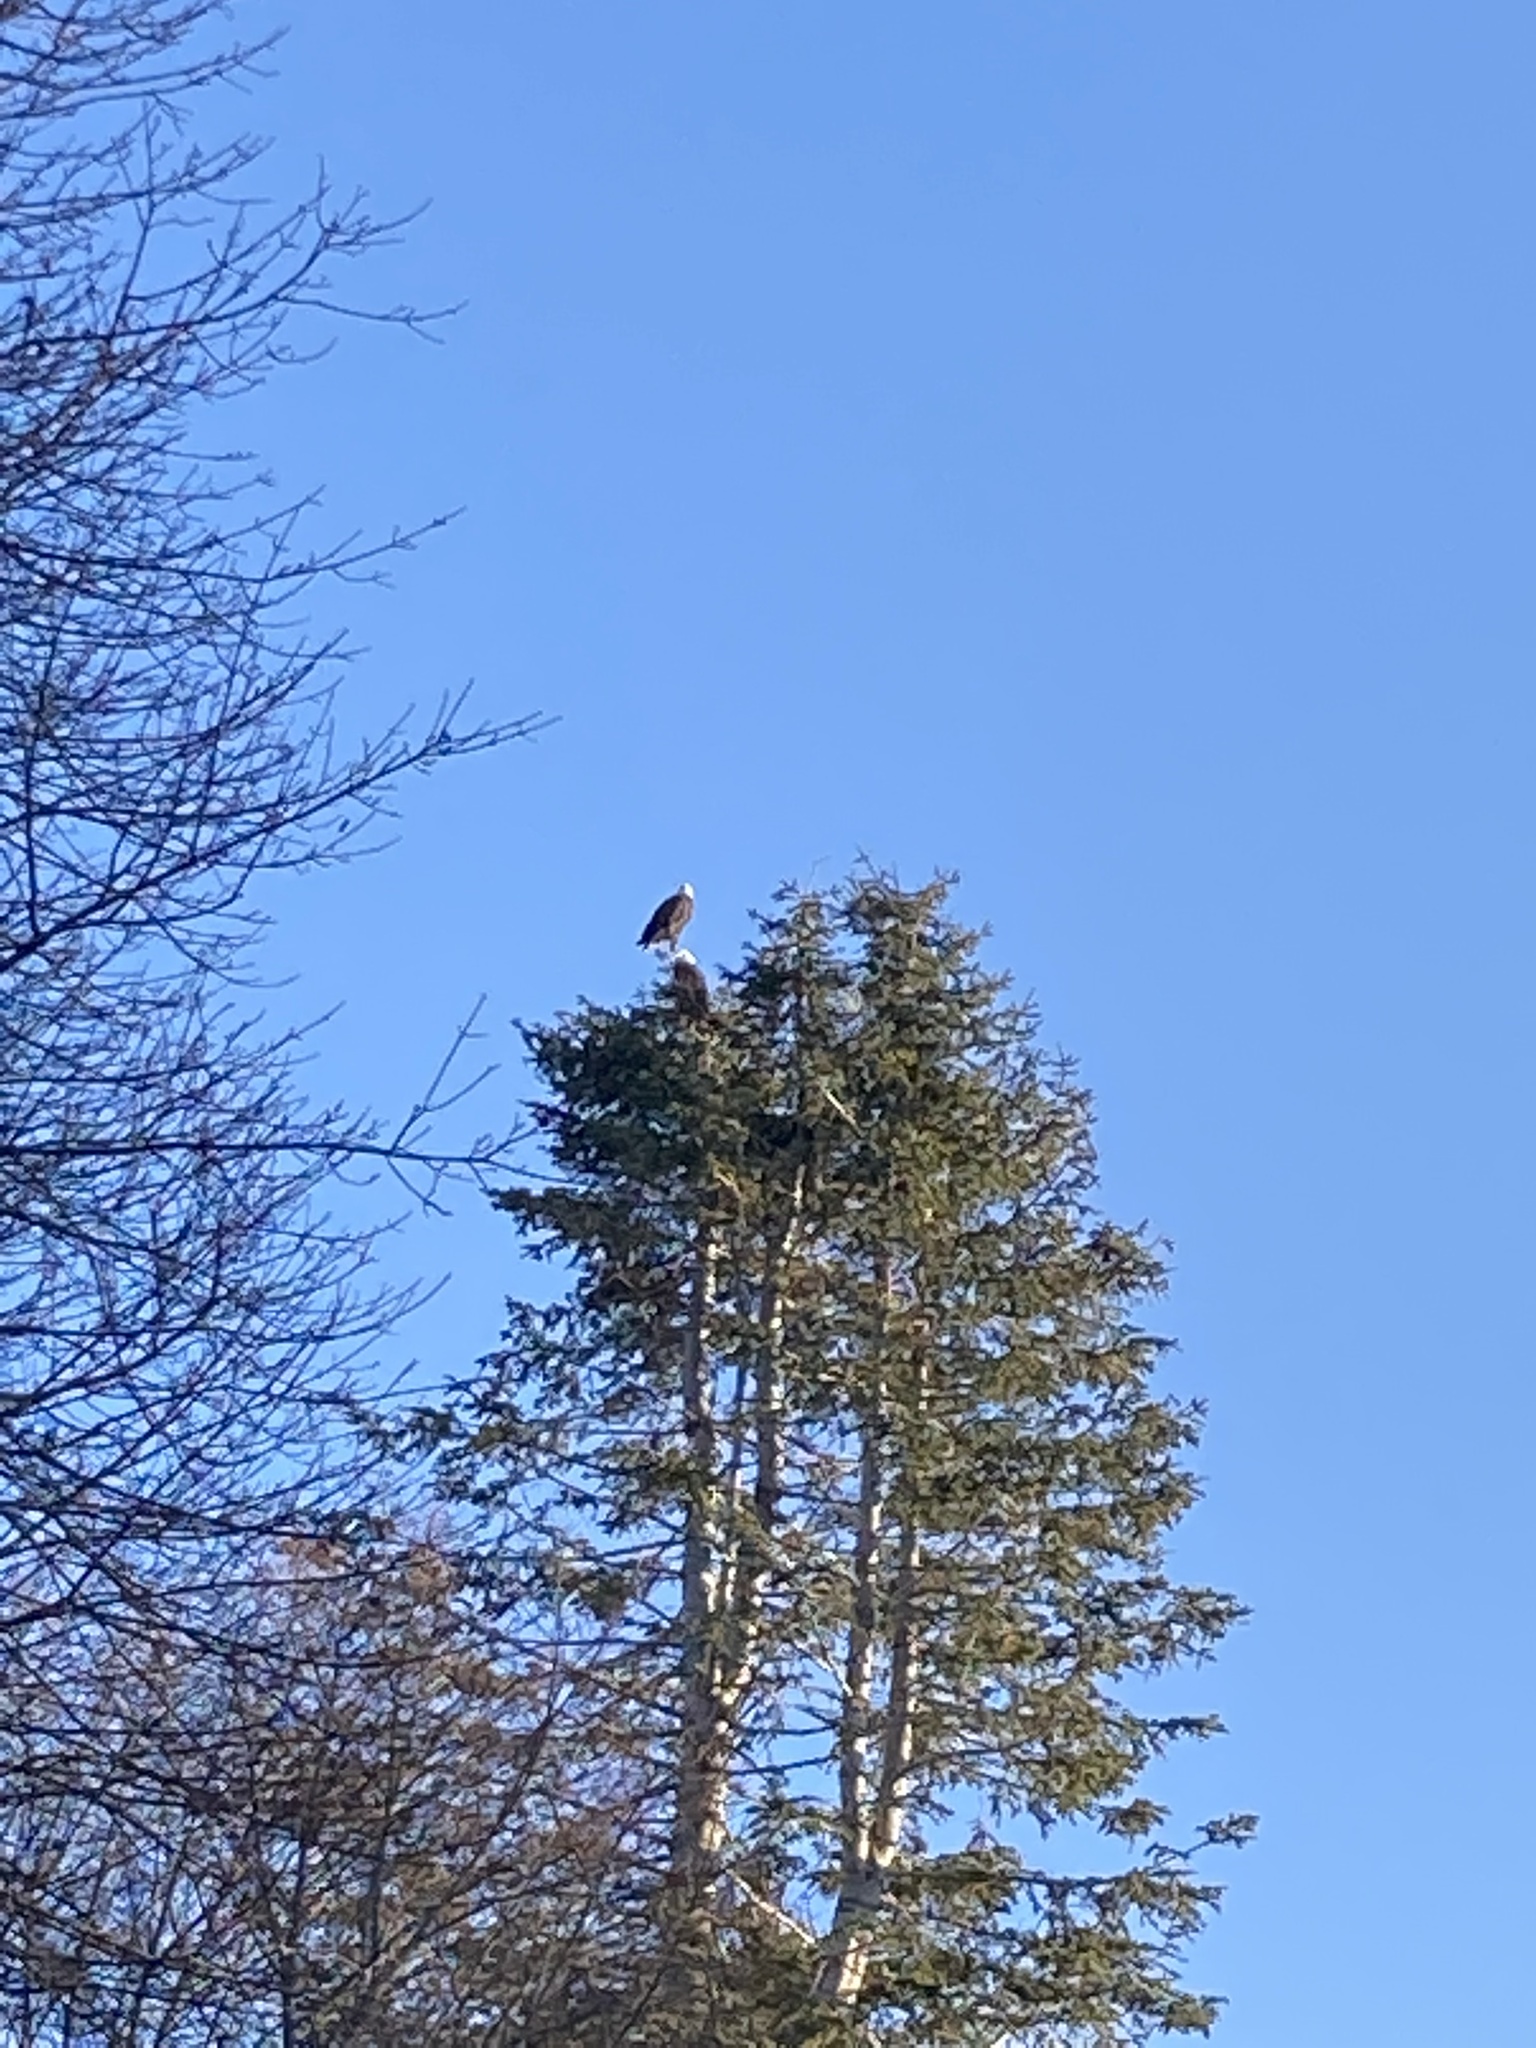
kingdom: Animalia
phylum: Chordata
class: Aves
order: Accipitriformes
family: Accipitridae
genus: Haliaeetus
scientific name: Haliaeetus leucocephalus
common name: Bald eagle
